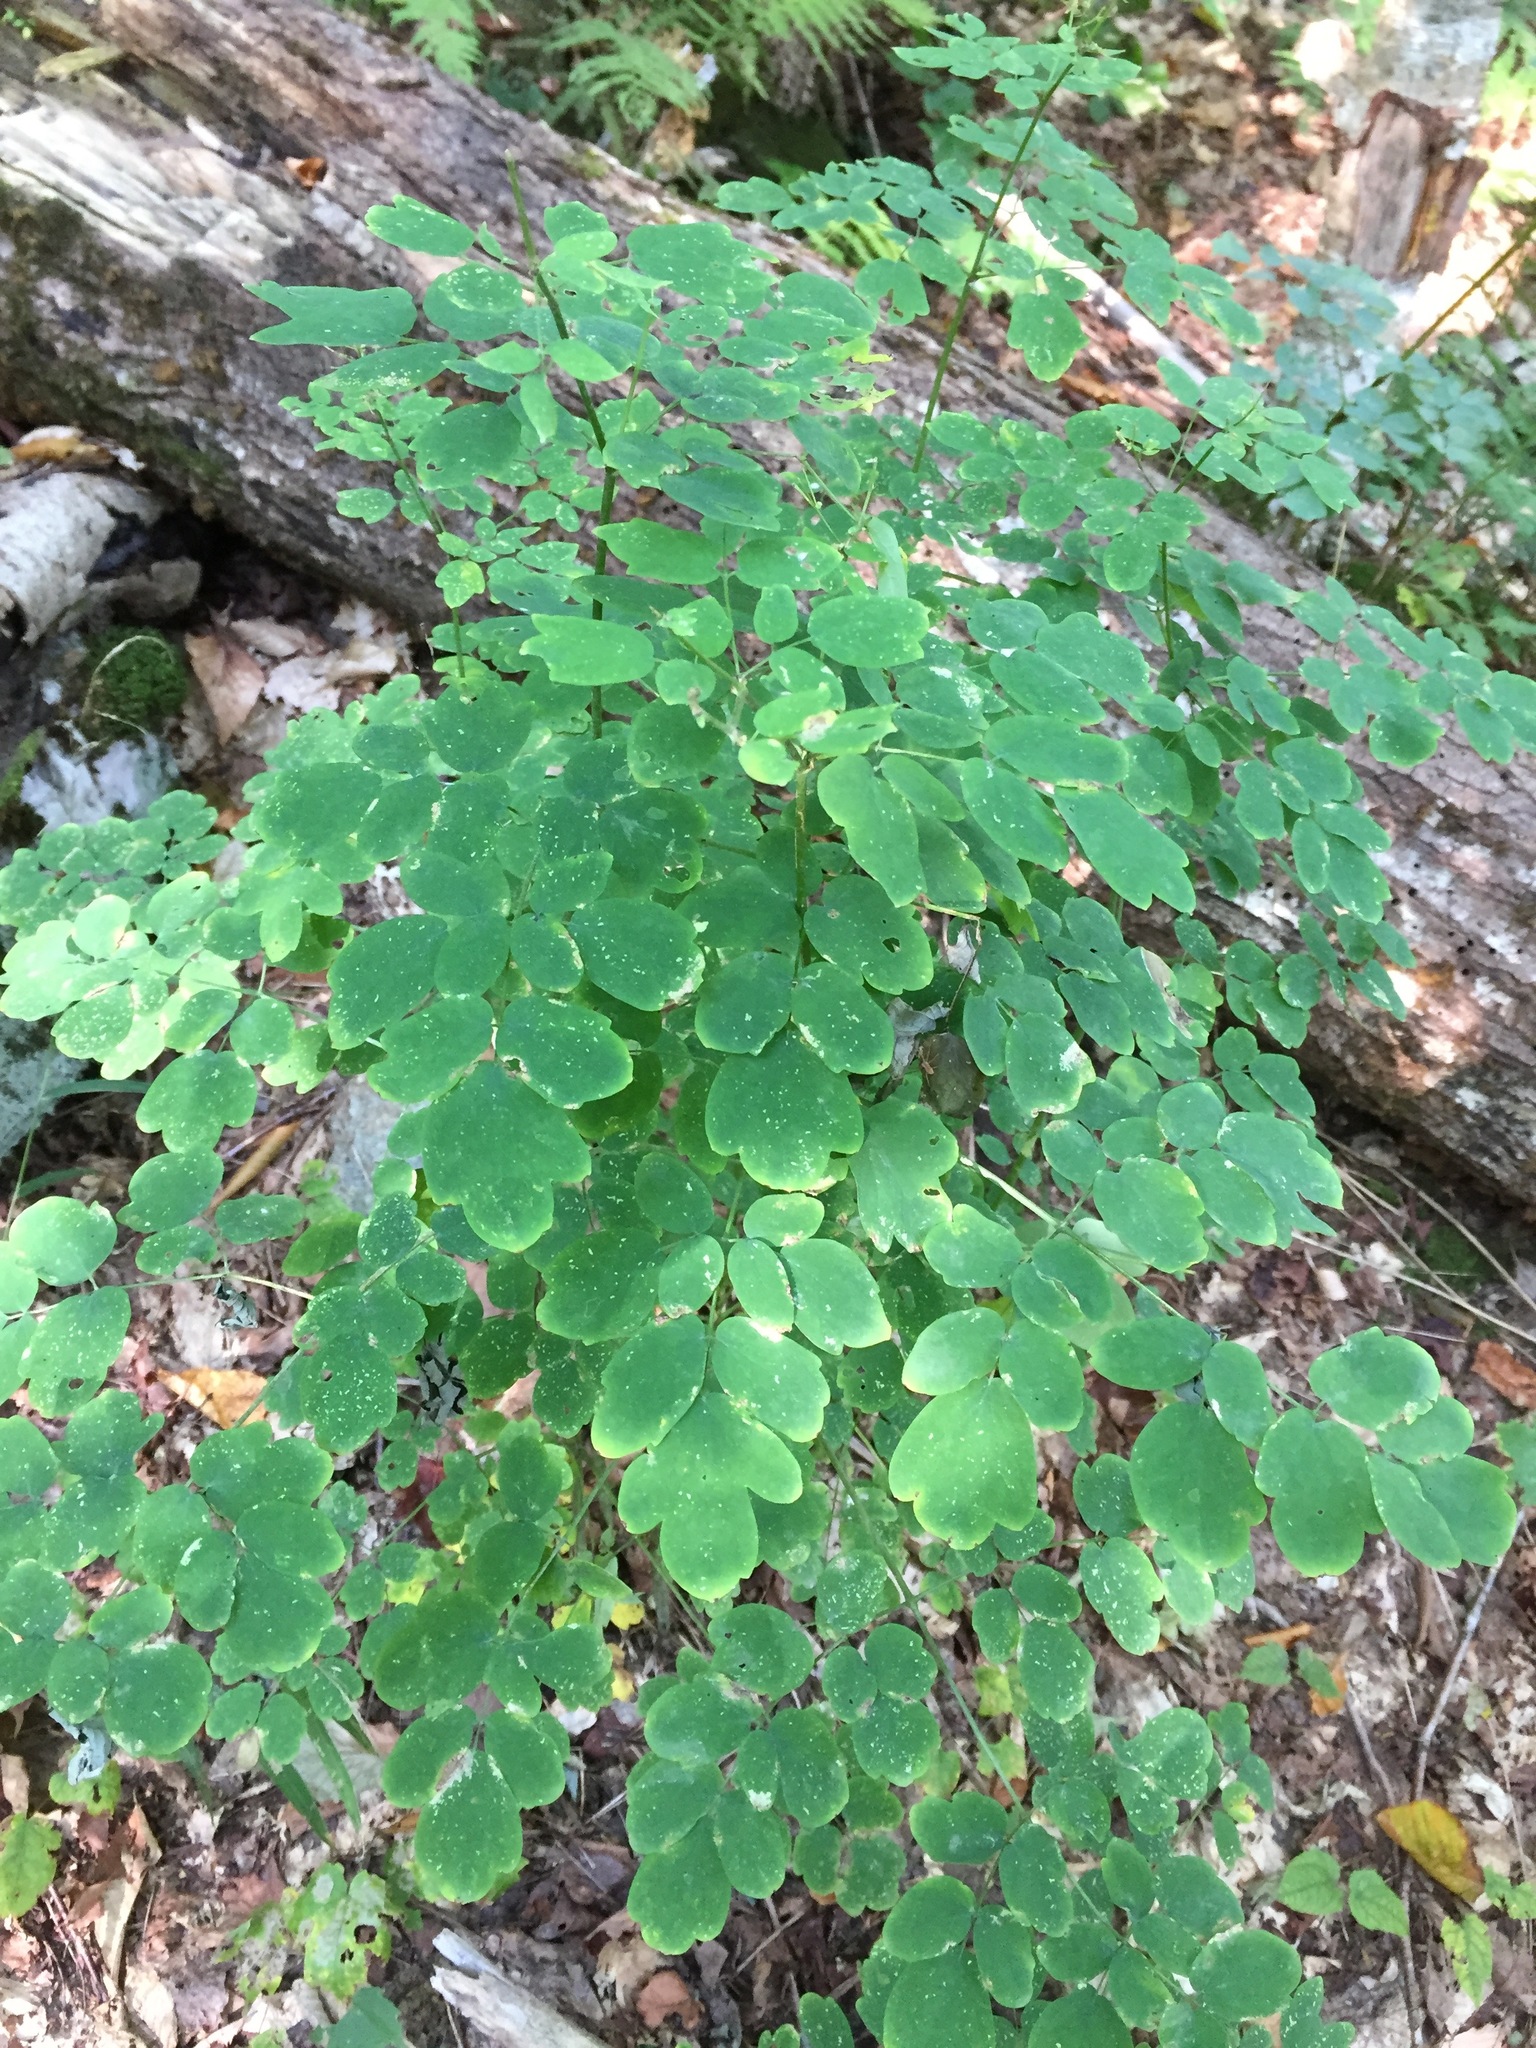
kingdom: Plantae
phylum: Tracheophyta
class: Magnoliopsida
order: Ranunculales
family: Ranunculaceae
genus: Thalictrum
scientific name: Thalictrum pubescens
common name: King-of-the-meadow
